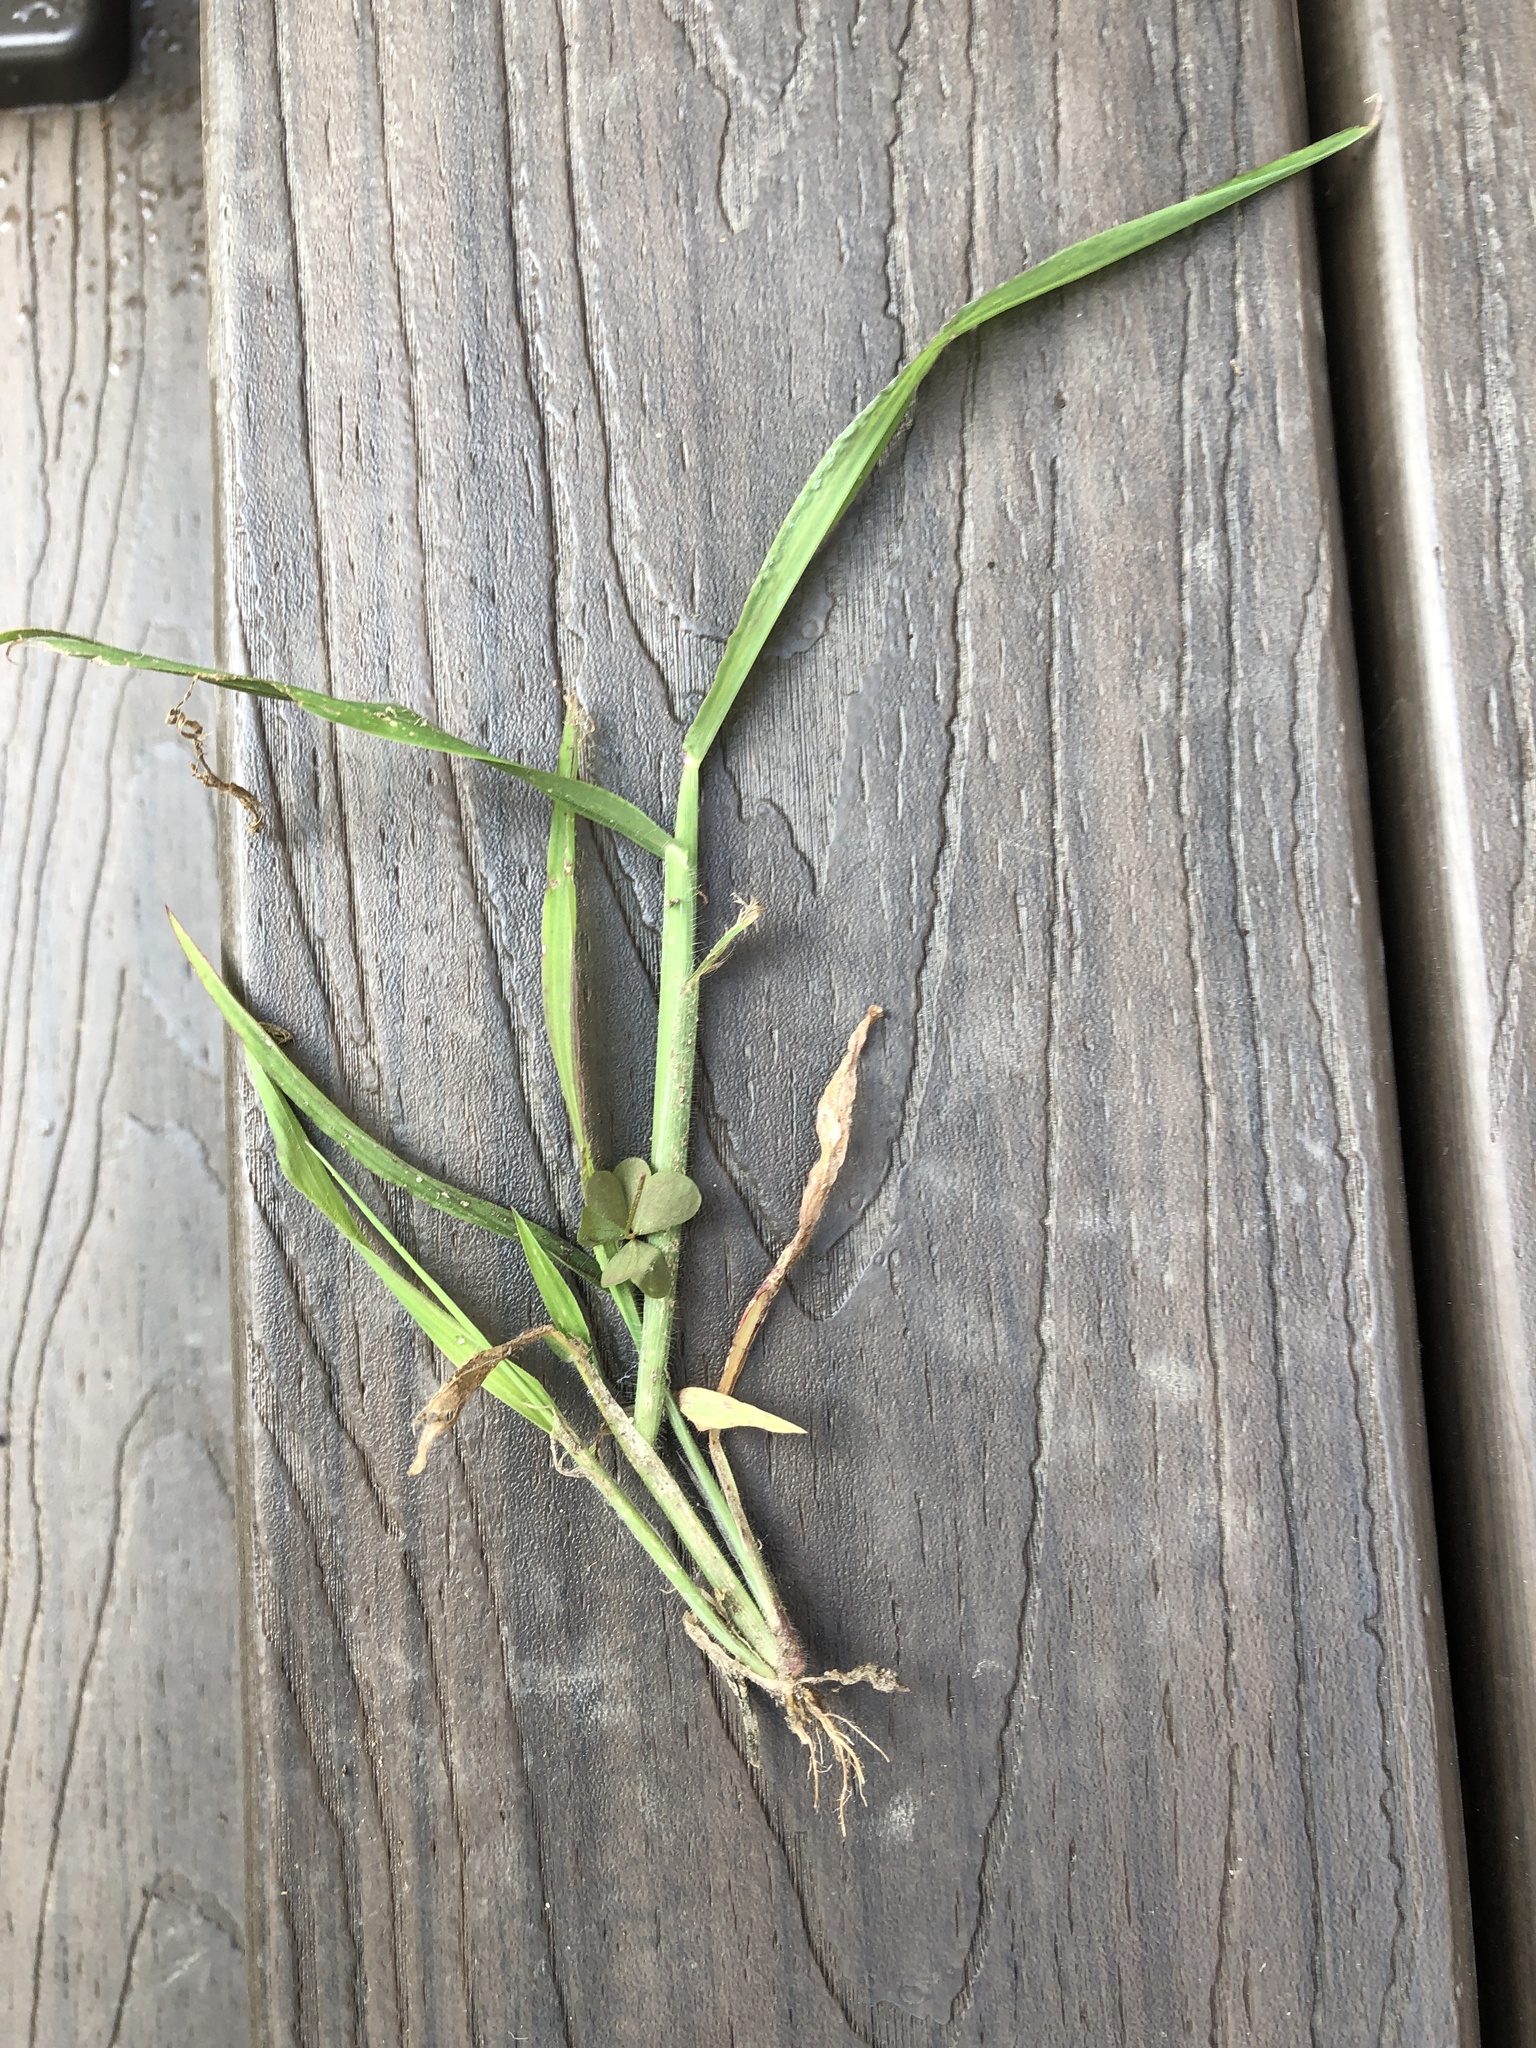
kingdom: Plantae
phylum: Tracheophyta
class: Liliopsida
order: Poales
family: Poaceae
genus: Digitaria
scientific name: Digitaria sanguinalis
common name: Hairy crabgrass
